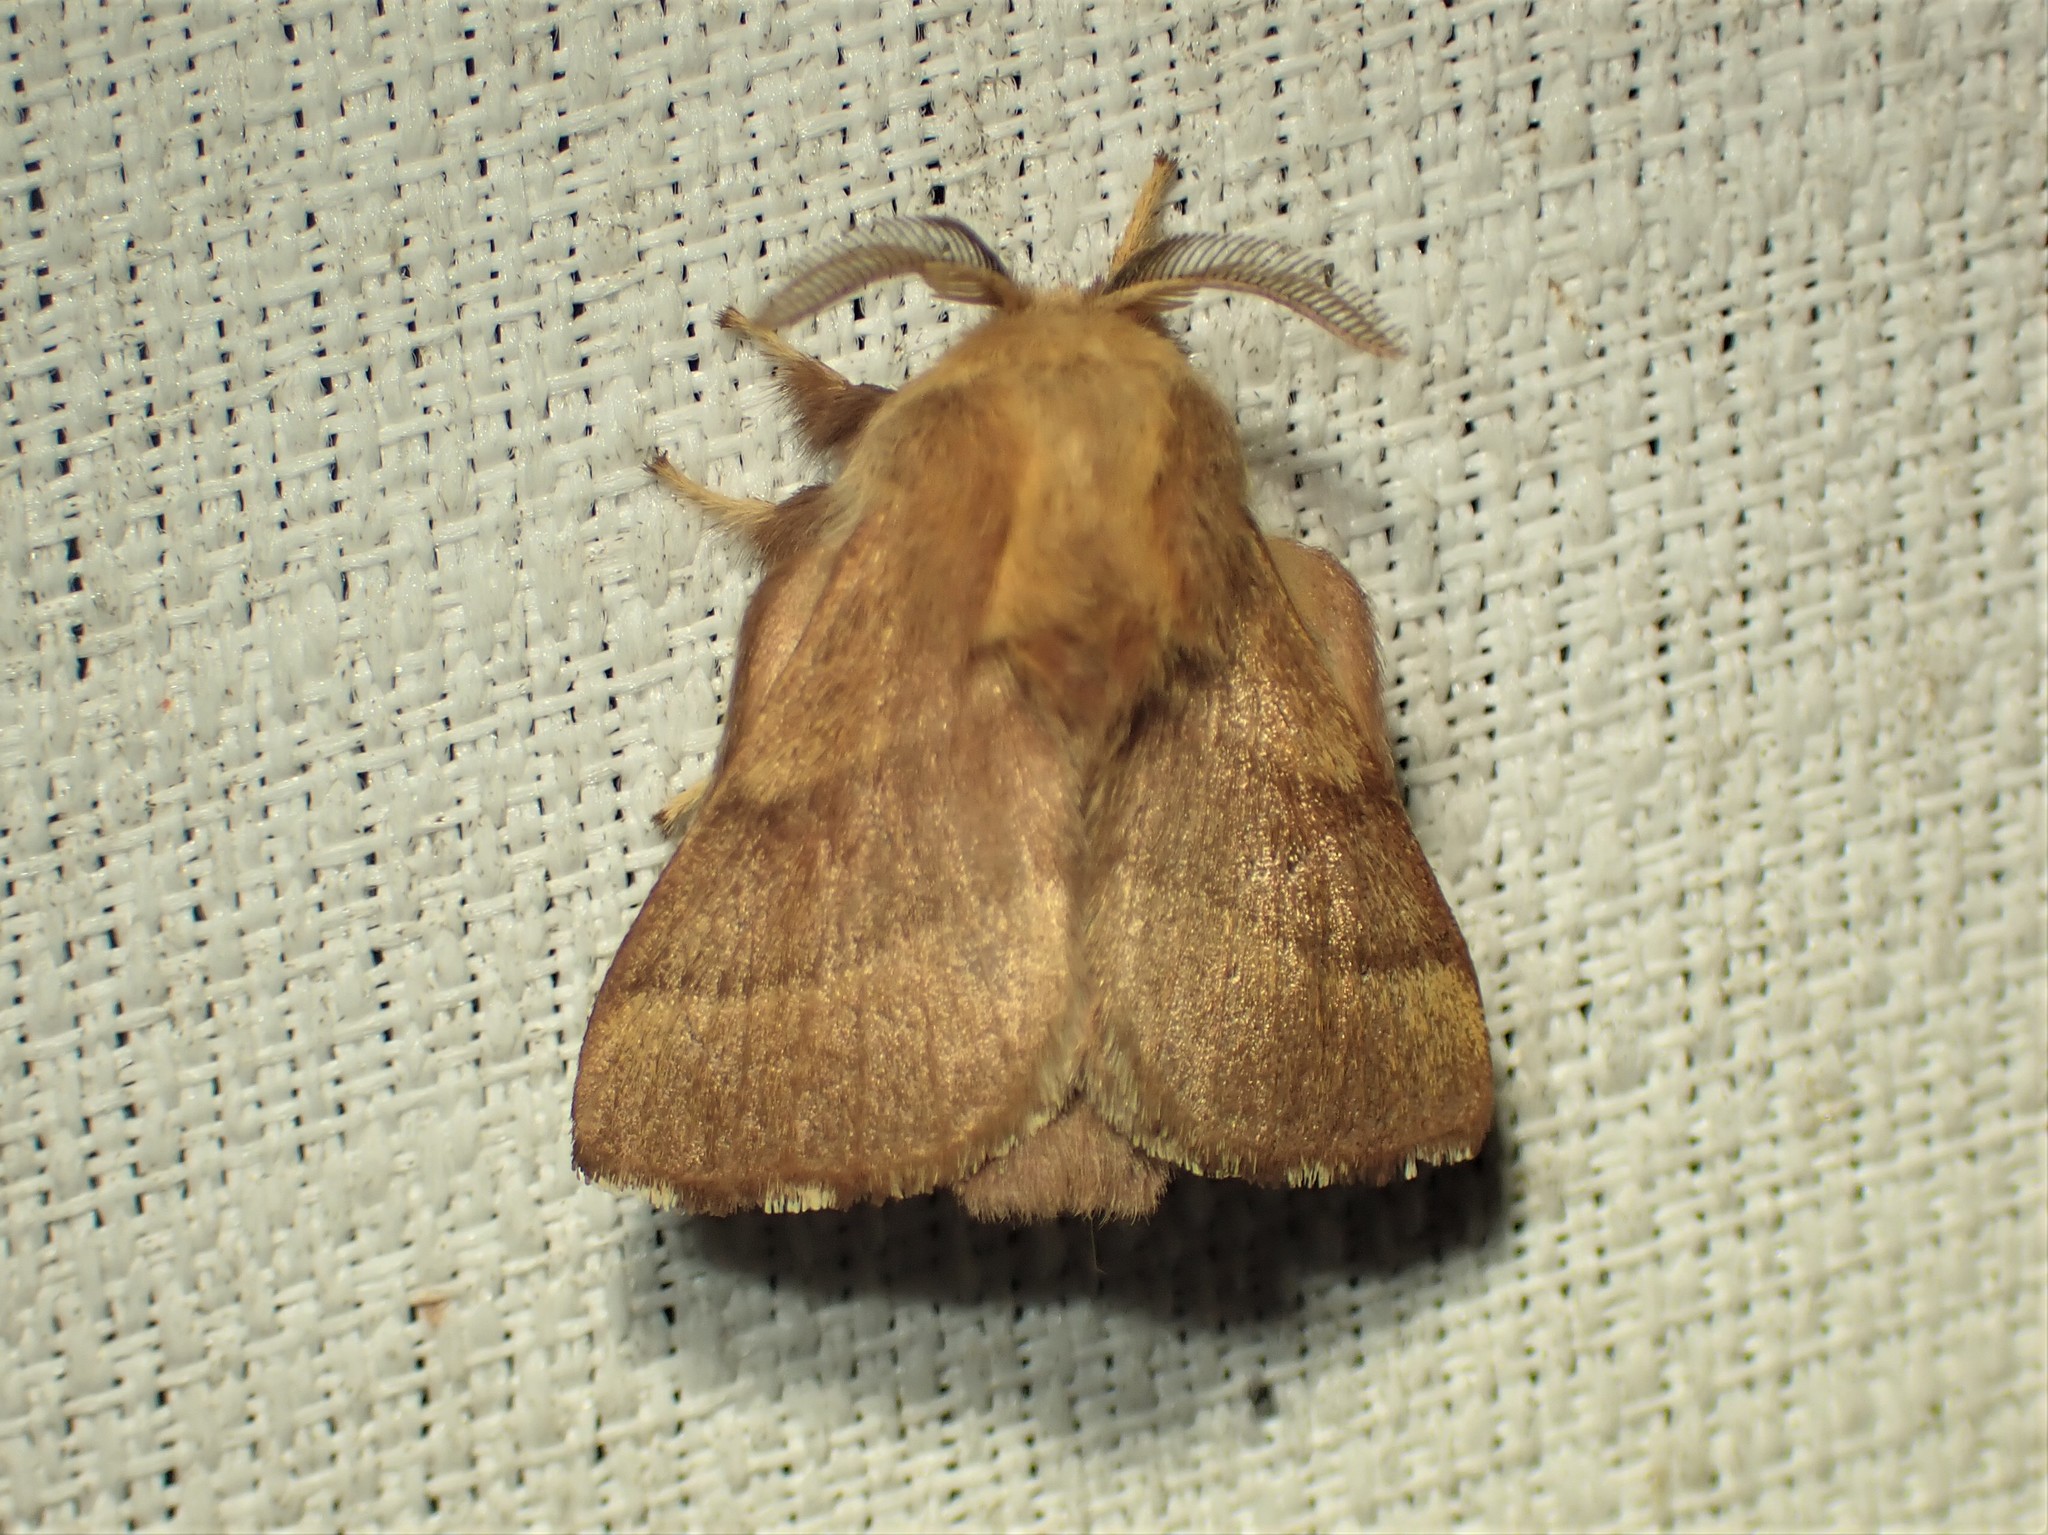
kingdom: Animalia
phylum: Arthropoda
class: Insecta
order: Lepidoptera
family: Lasiocampidae
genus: Malacosoma
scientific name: Malacosoma disstria
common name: Forest tent caterpillar
